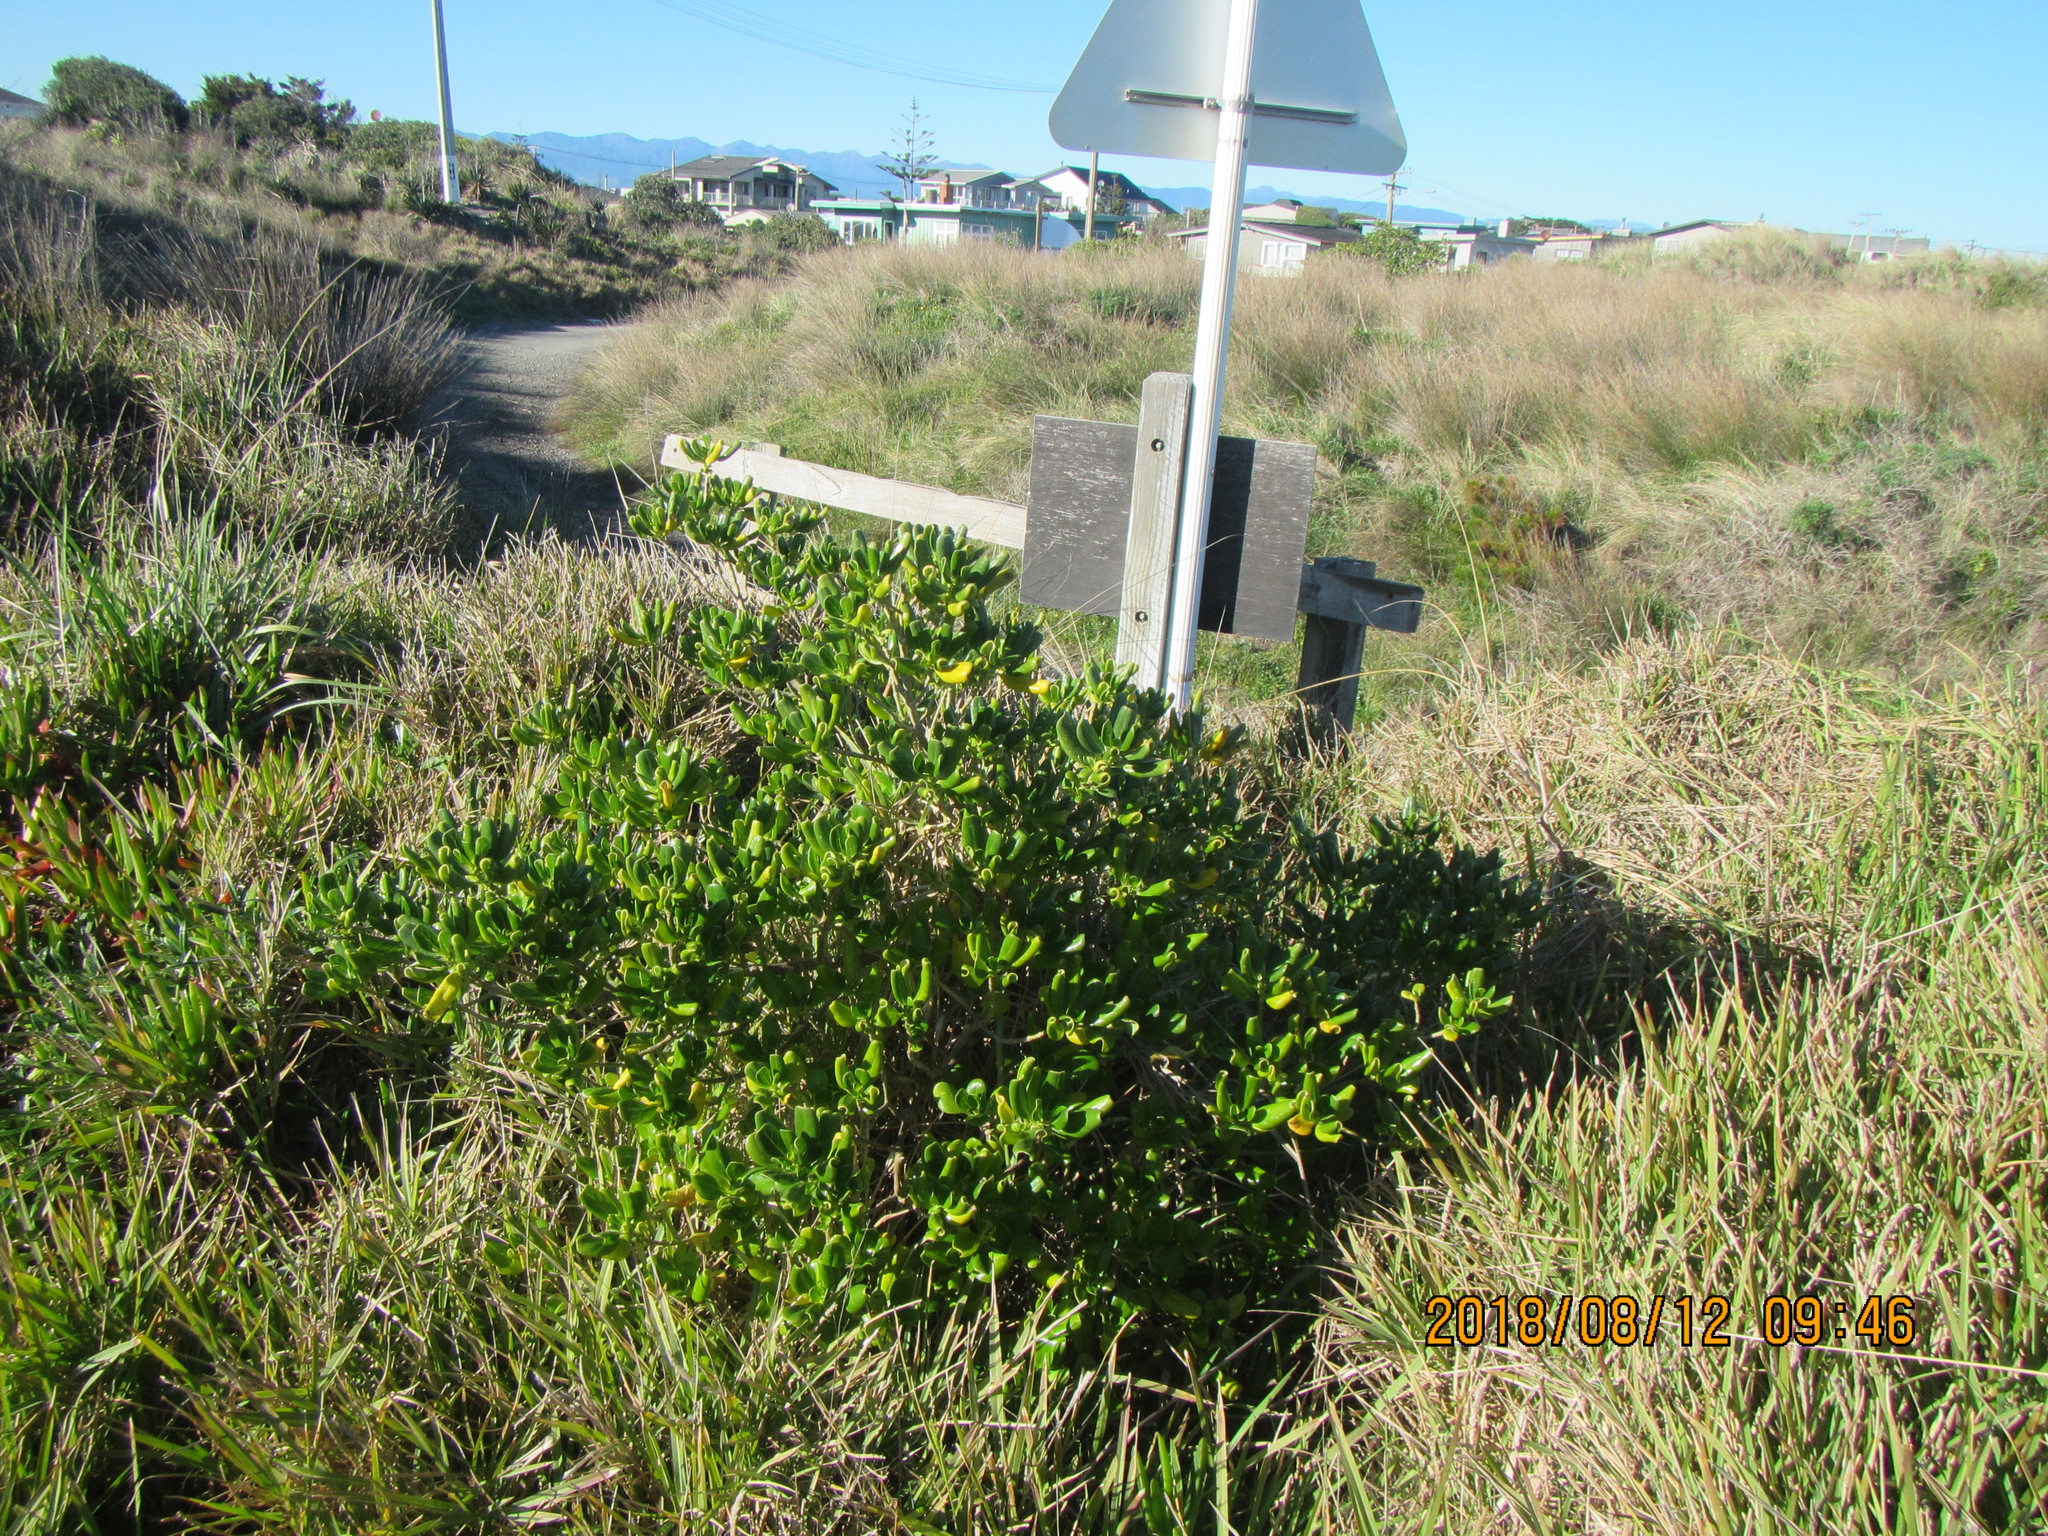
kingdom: Plantae
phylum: Tracheophyta
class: Magnoliopsida
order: Gentianales
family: Rubiaceae
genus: Coprosma
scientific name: Coprosma repens
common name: Tree bedstraw
